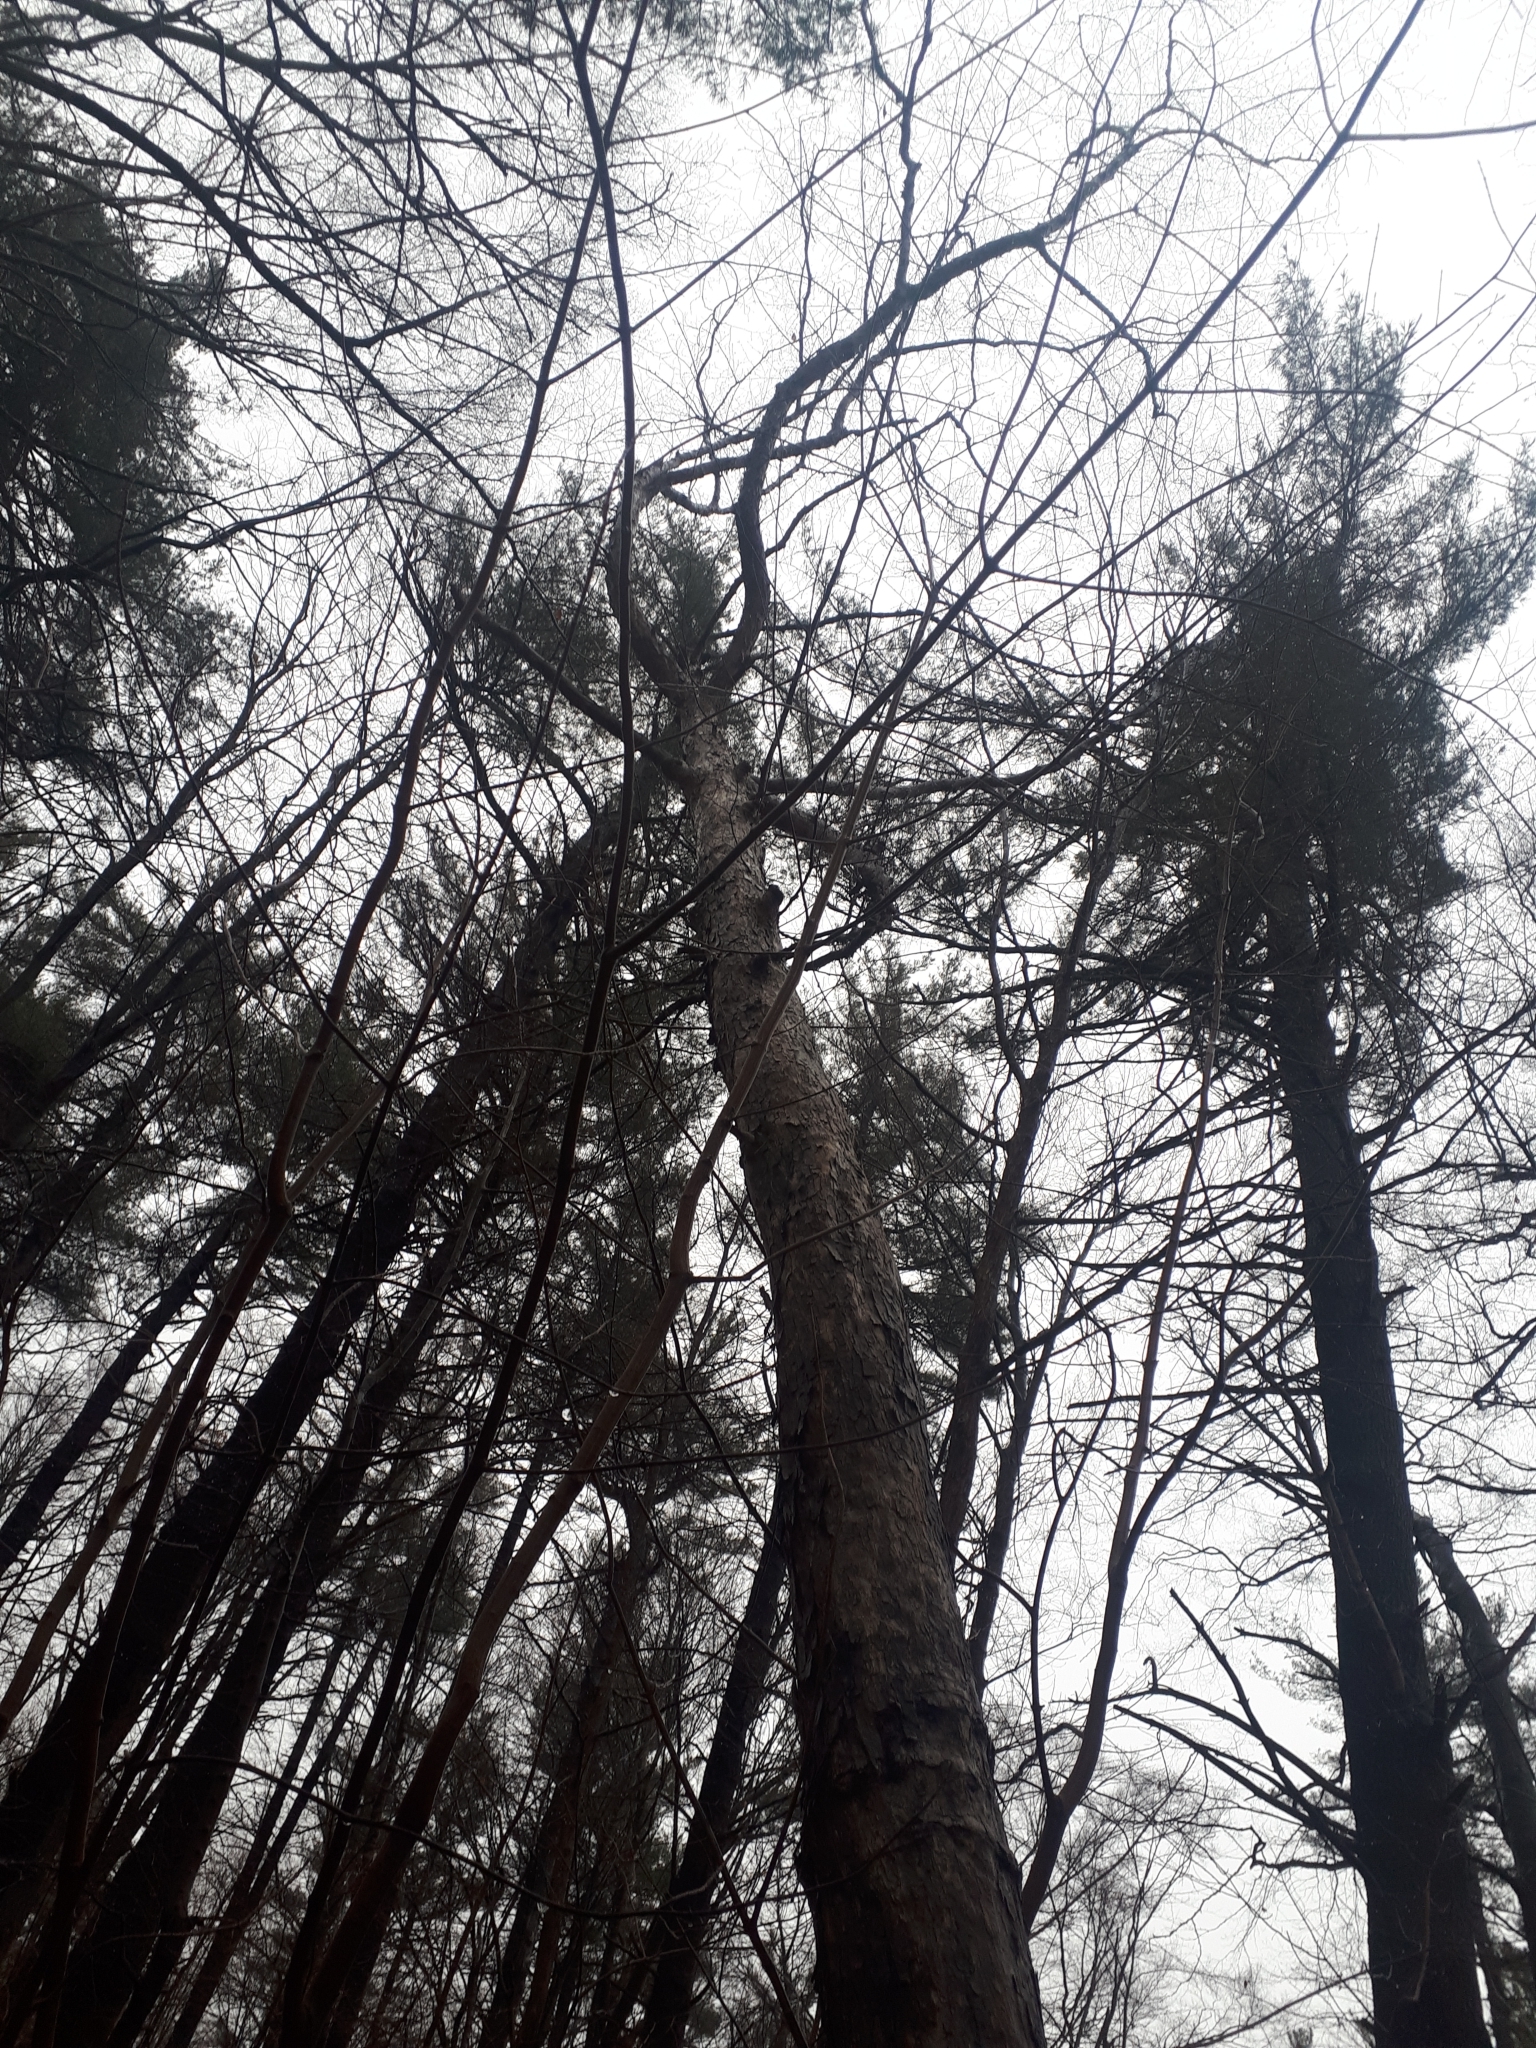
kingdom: Plantae
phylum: Tracheophyta
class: Magnoliopsida
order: Fagales
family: Betulaceae
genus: Ostrya
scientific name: Ostrya virginiana
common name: Ironwood
